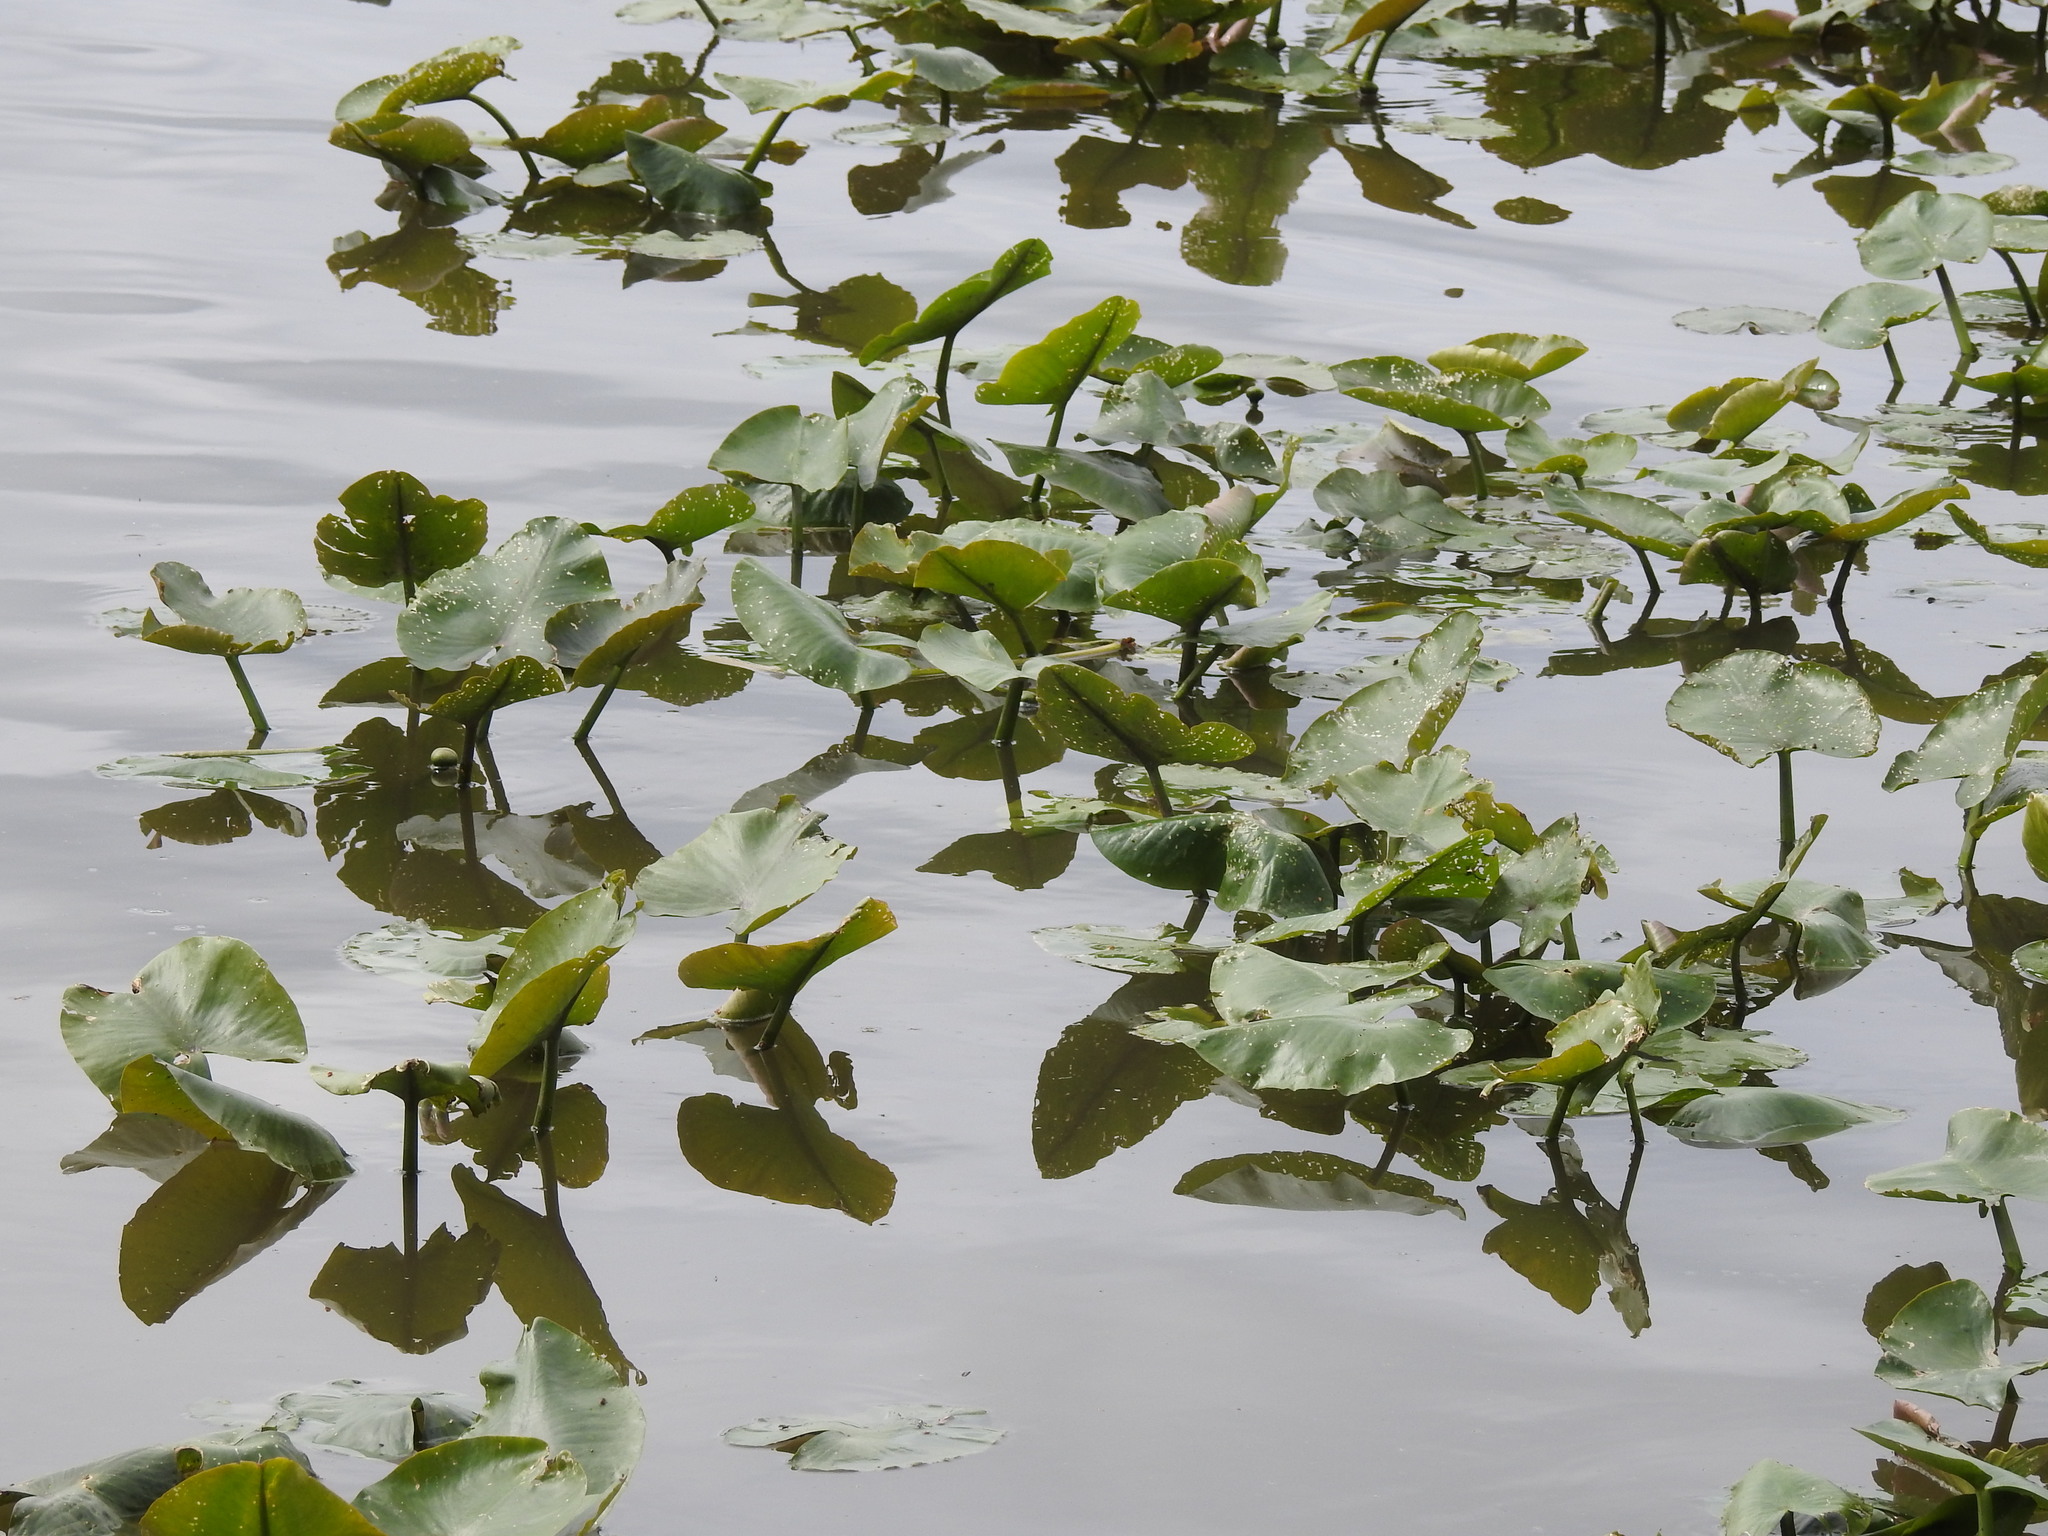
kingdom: Plantae
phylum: Tracheophyta
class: Magnoliopsida
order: Nymphaeales
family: Nymphaeaceae
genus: Nuphar
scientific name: Nuphar advena
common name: Spatter-dock
